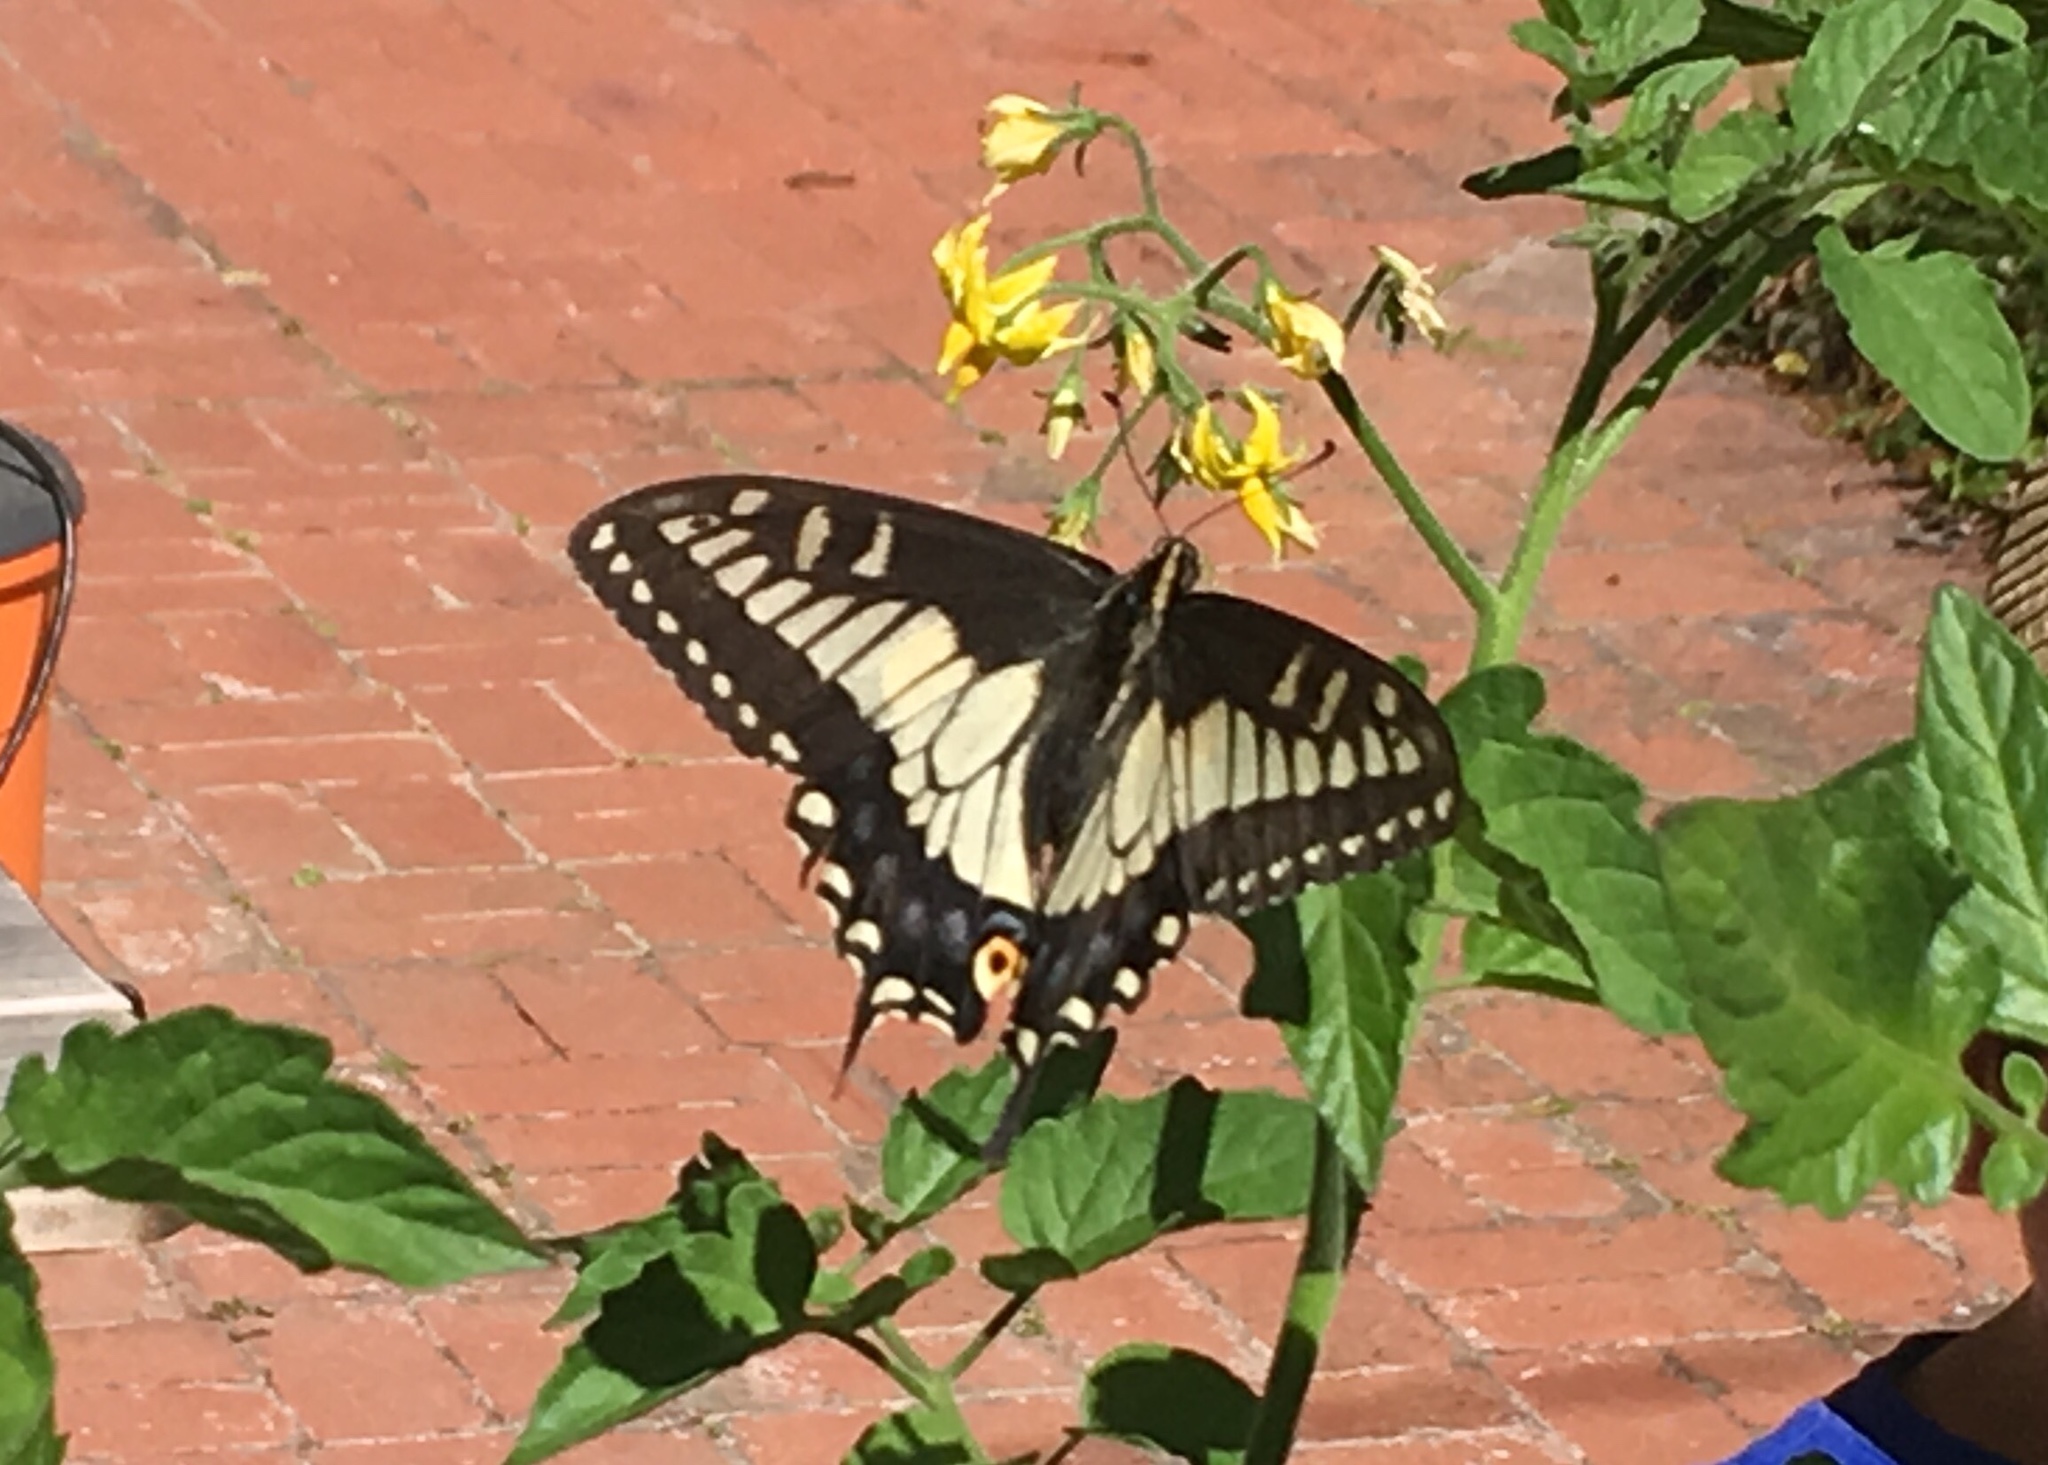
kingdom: Animalia
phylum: Arthropoda
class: Insecta
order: Lepidoptera
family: Papilionidae
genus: Papilio
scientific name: Papilio zelicaon
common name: Anise swallowtail
